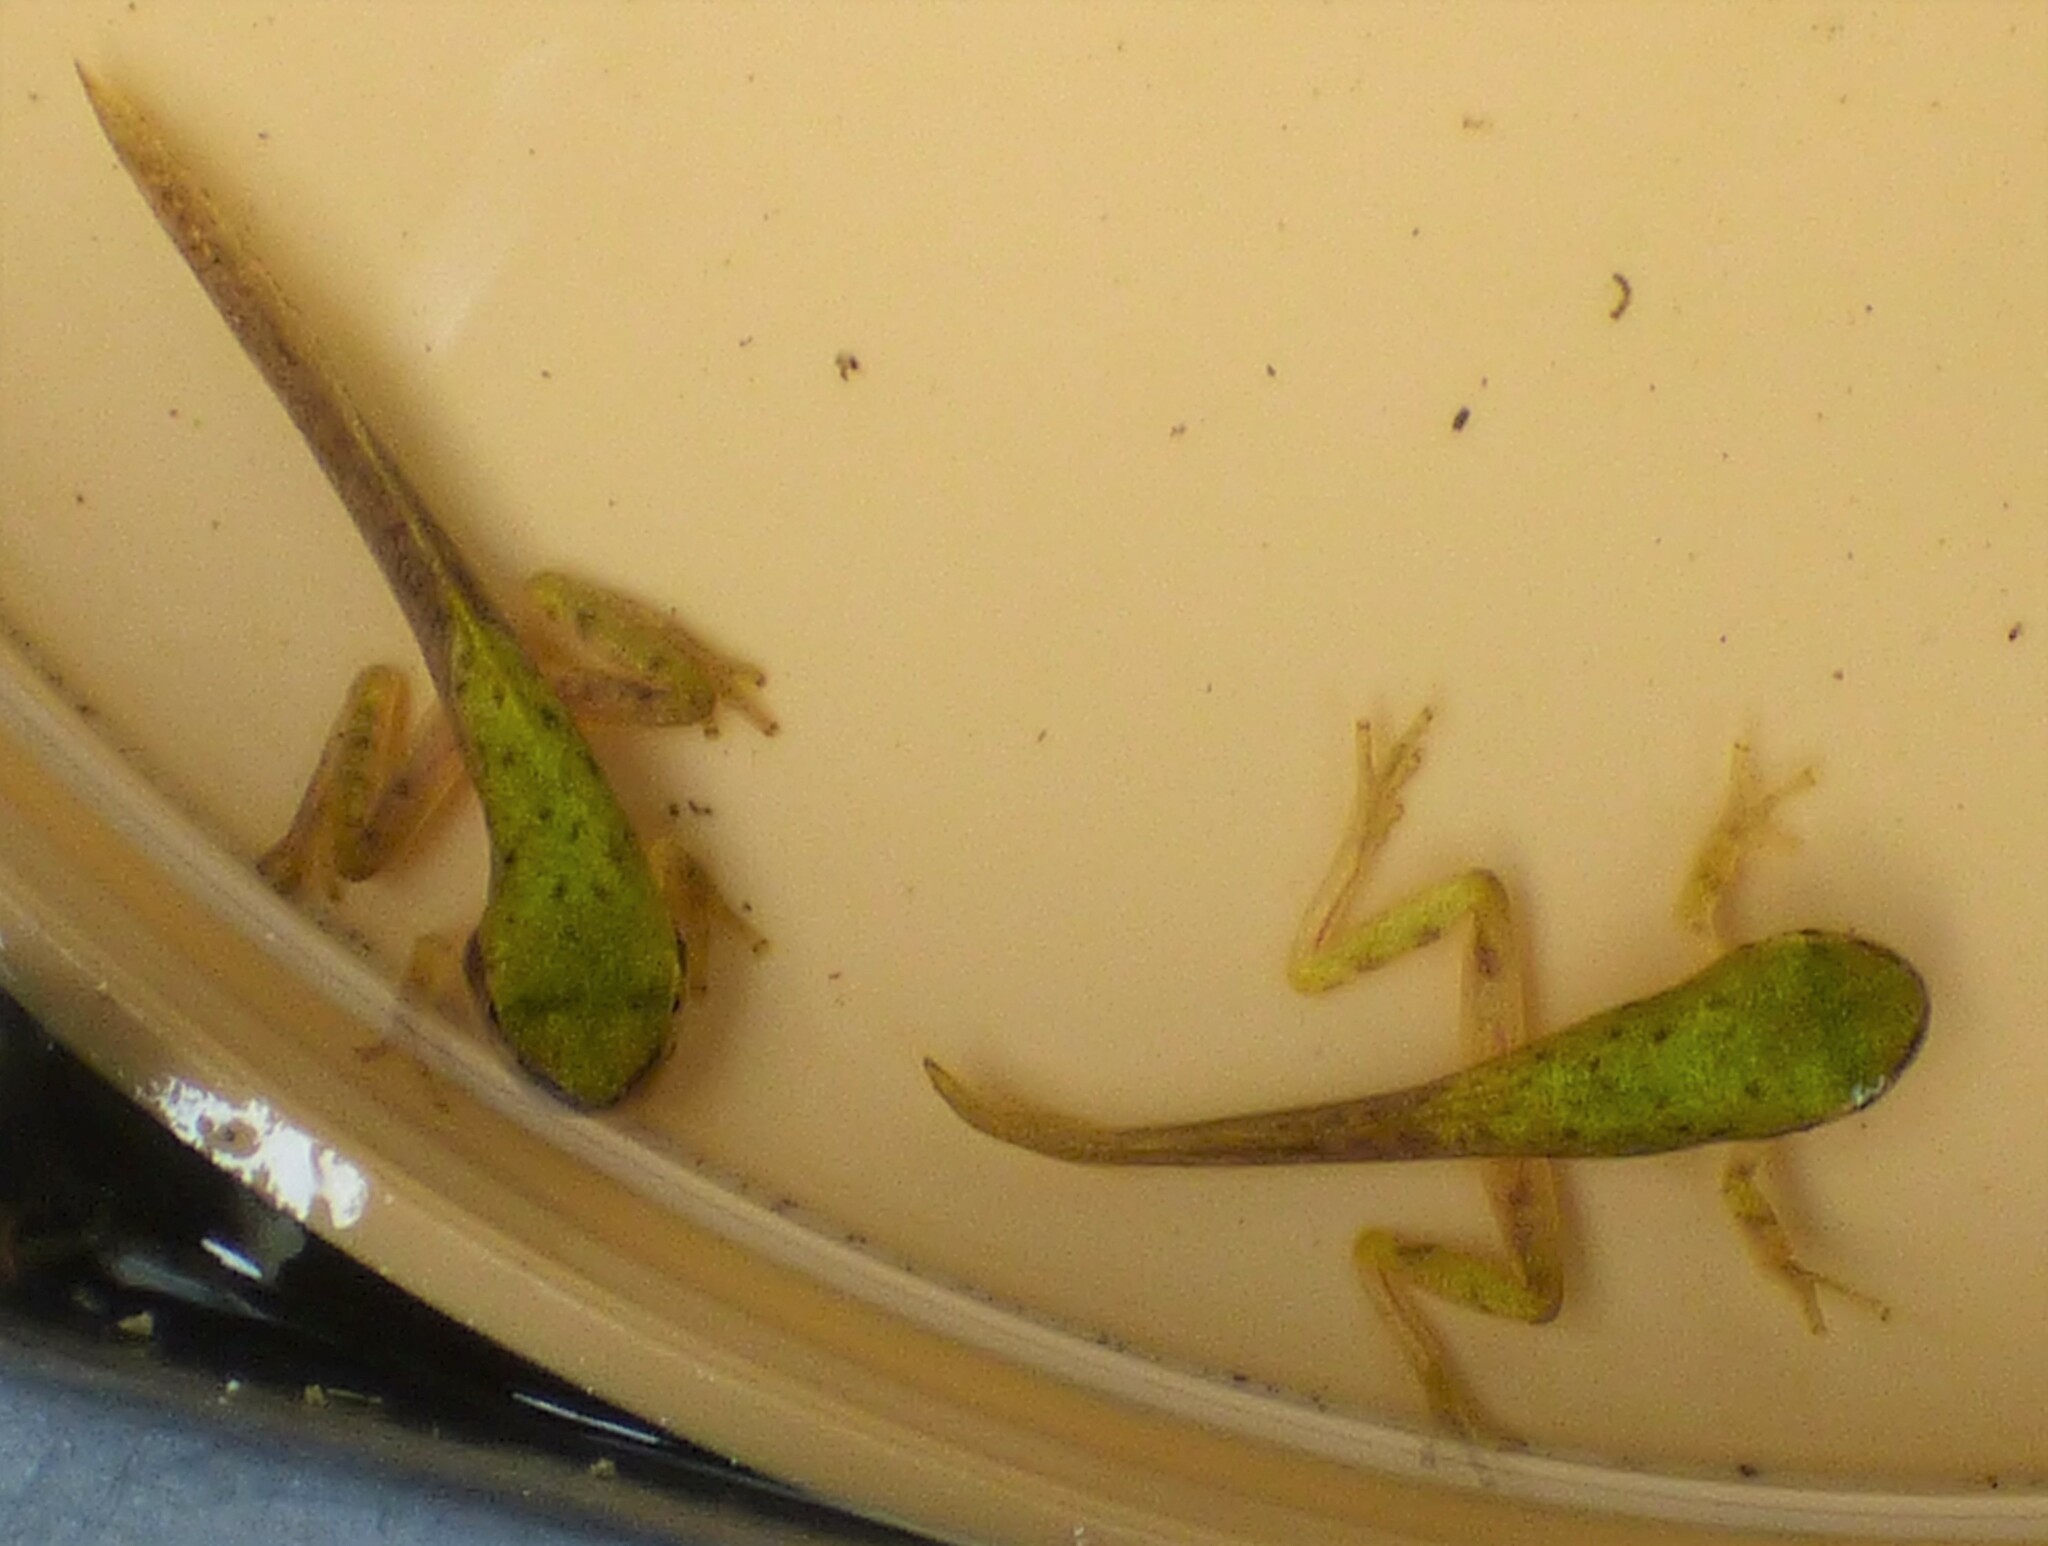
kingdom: Animalia
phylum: Chordata
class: Amphibia
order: Anura
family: Hylidae
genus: Dryophytes
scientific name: Dryophytes squirellus
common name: Squirrel treefrog
